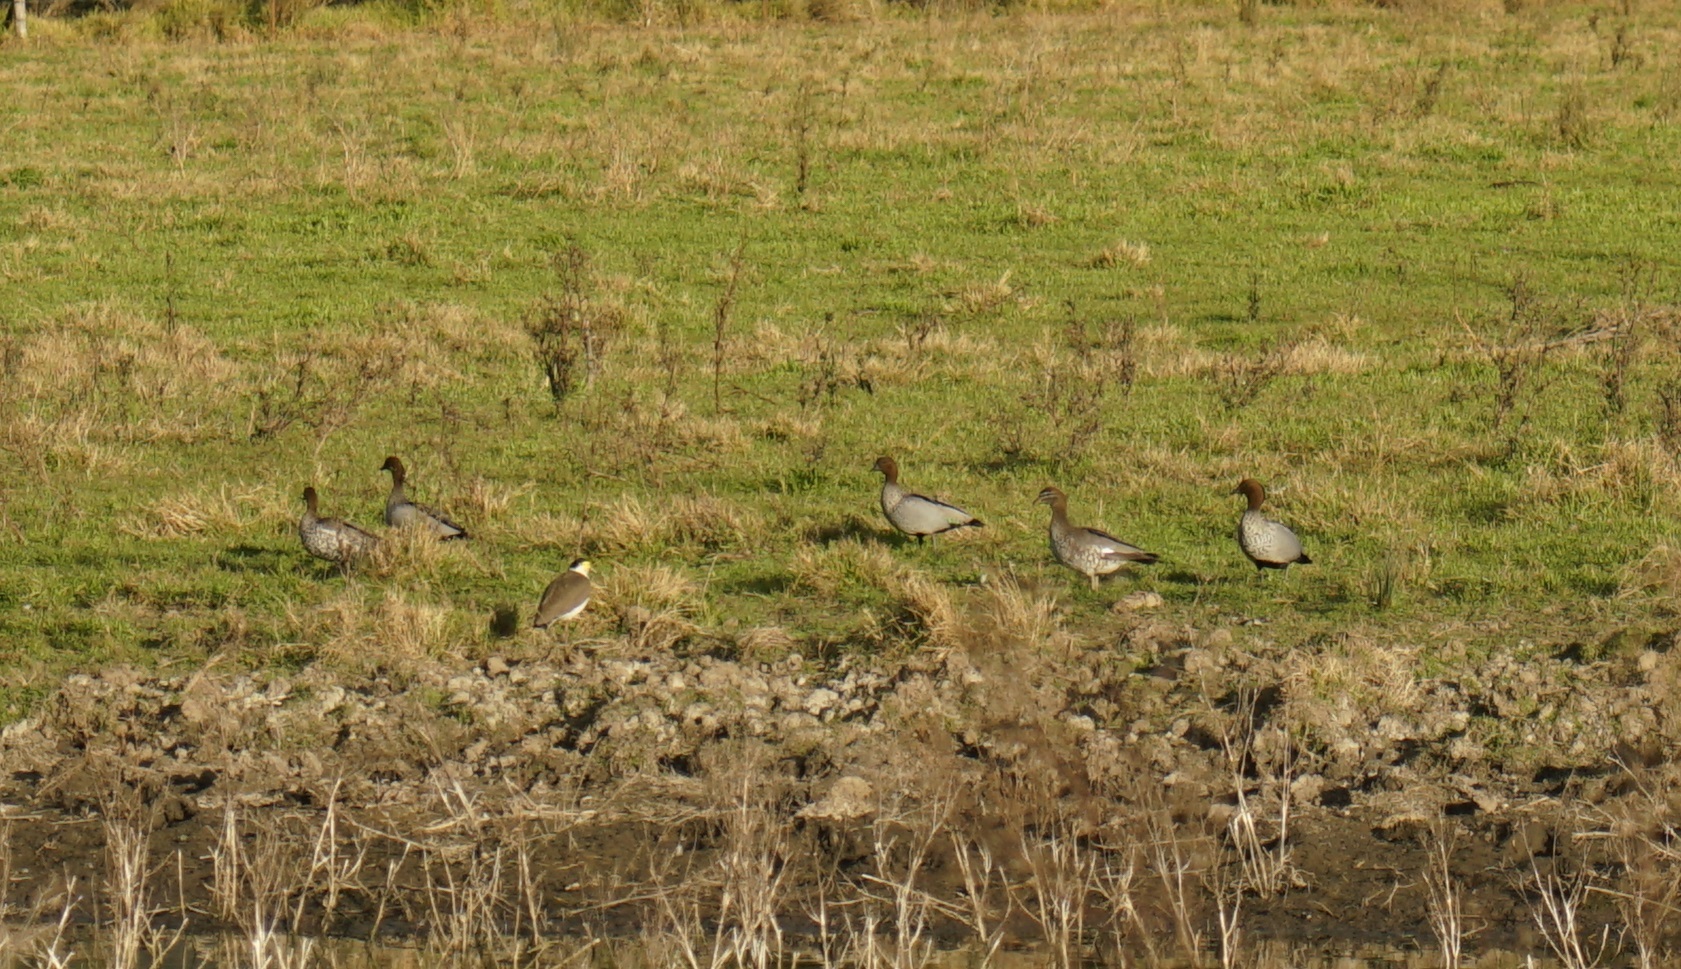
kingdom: Animalia
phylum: Chordata
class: Aves
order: Anseriformes
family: Anatidae
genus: Chenonetta
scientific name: Chenonetta jubata
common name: Maned duck
